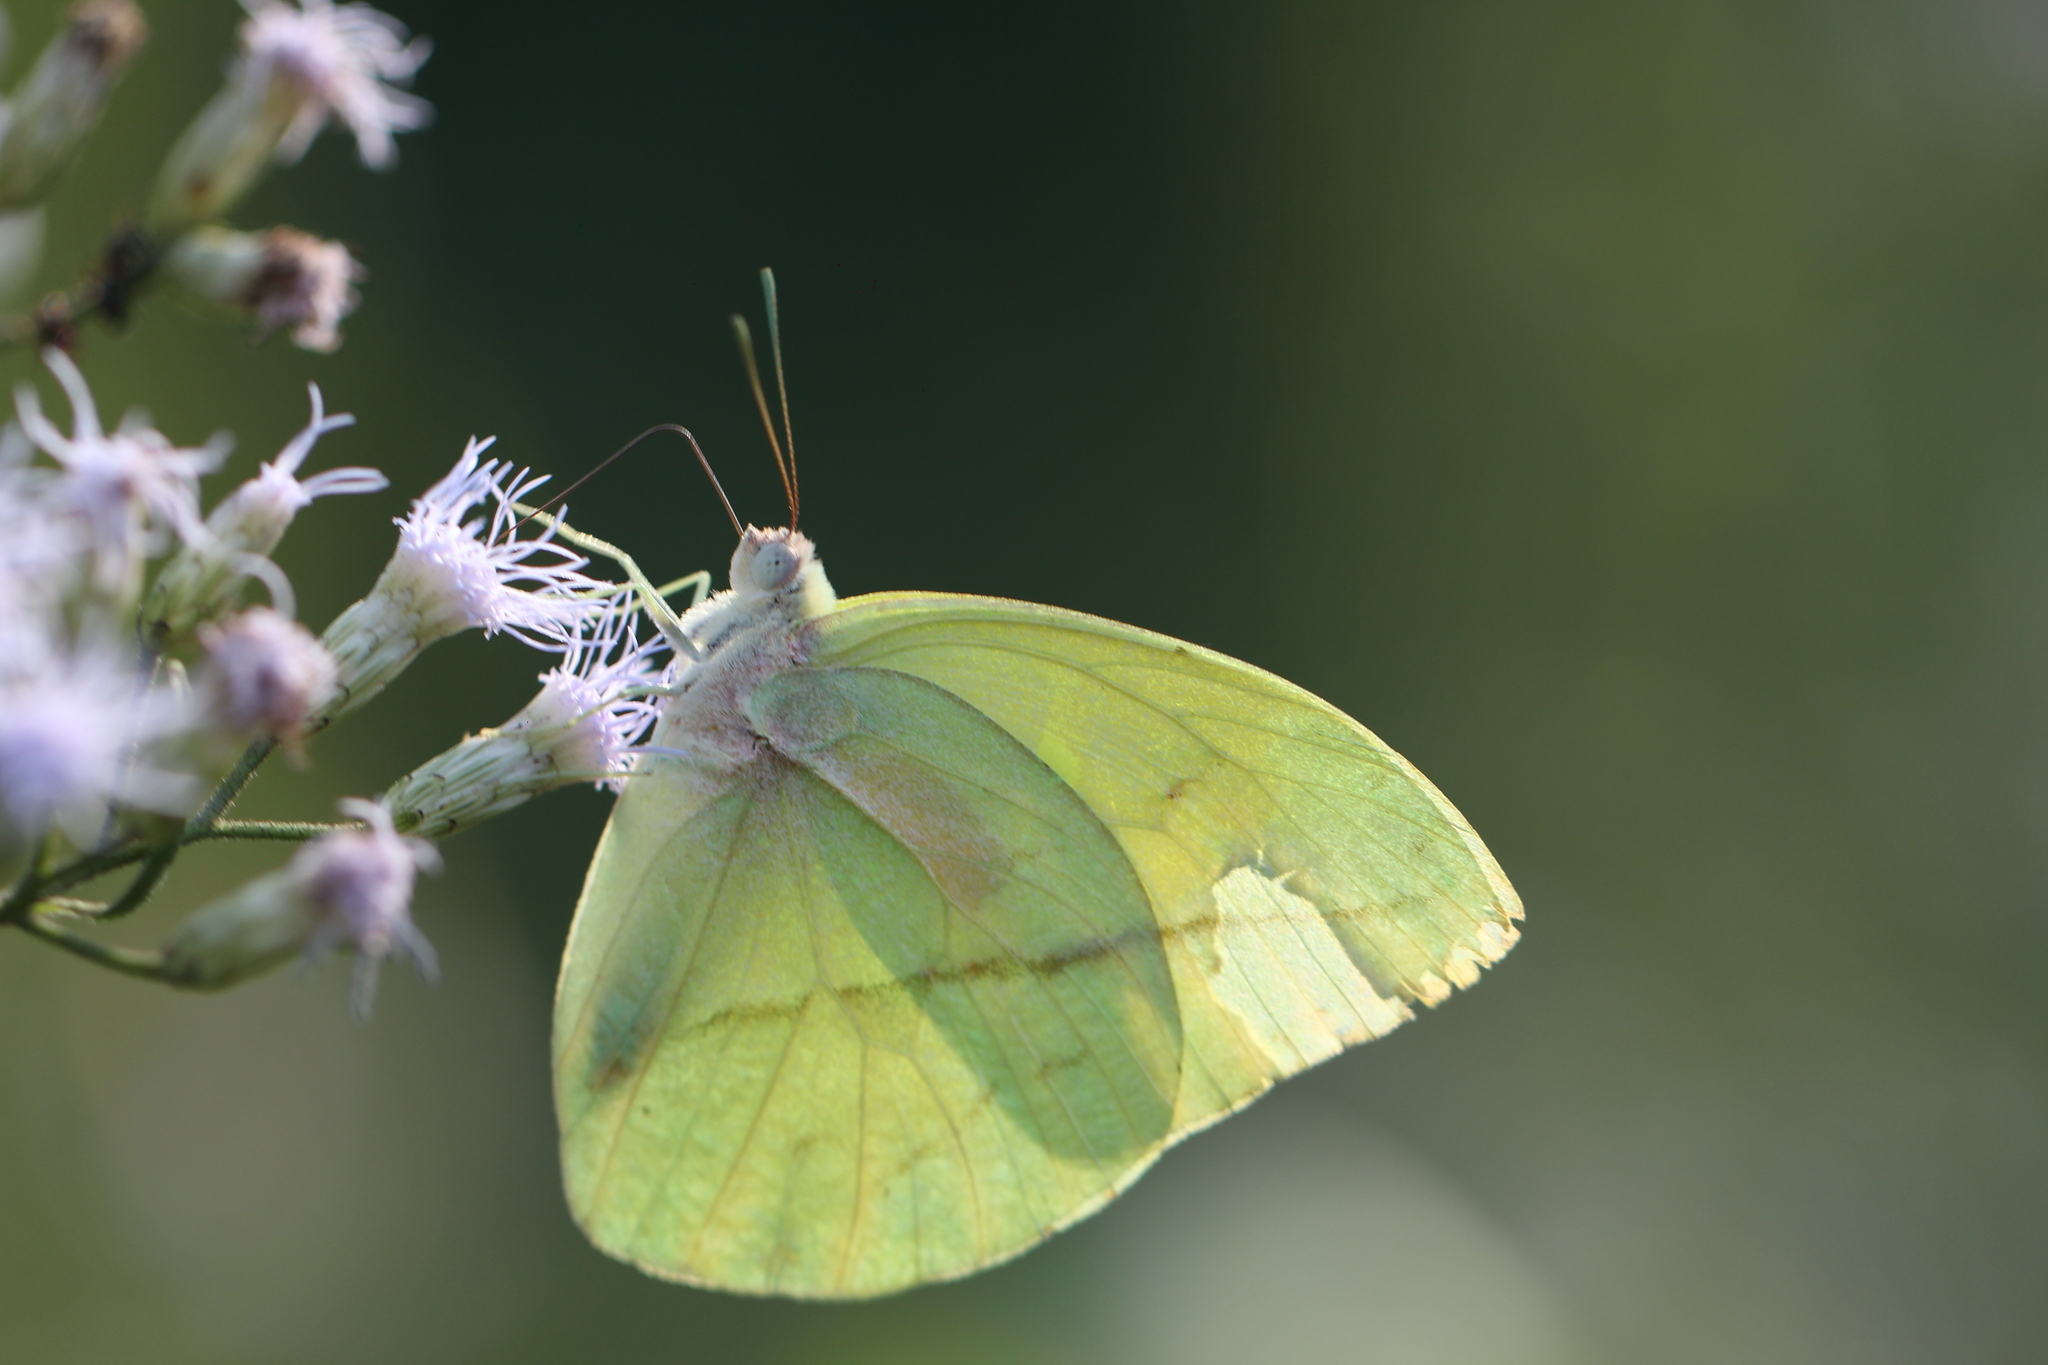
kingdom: Animalia
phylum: Arthropoda
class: Insecta
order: Lepidoptera
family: Pieridae
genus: Rhabdodryas
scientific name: Rhabdodryas trite
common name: Straight-lined sulphur
